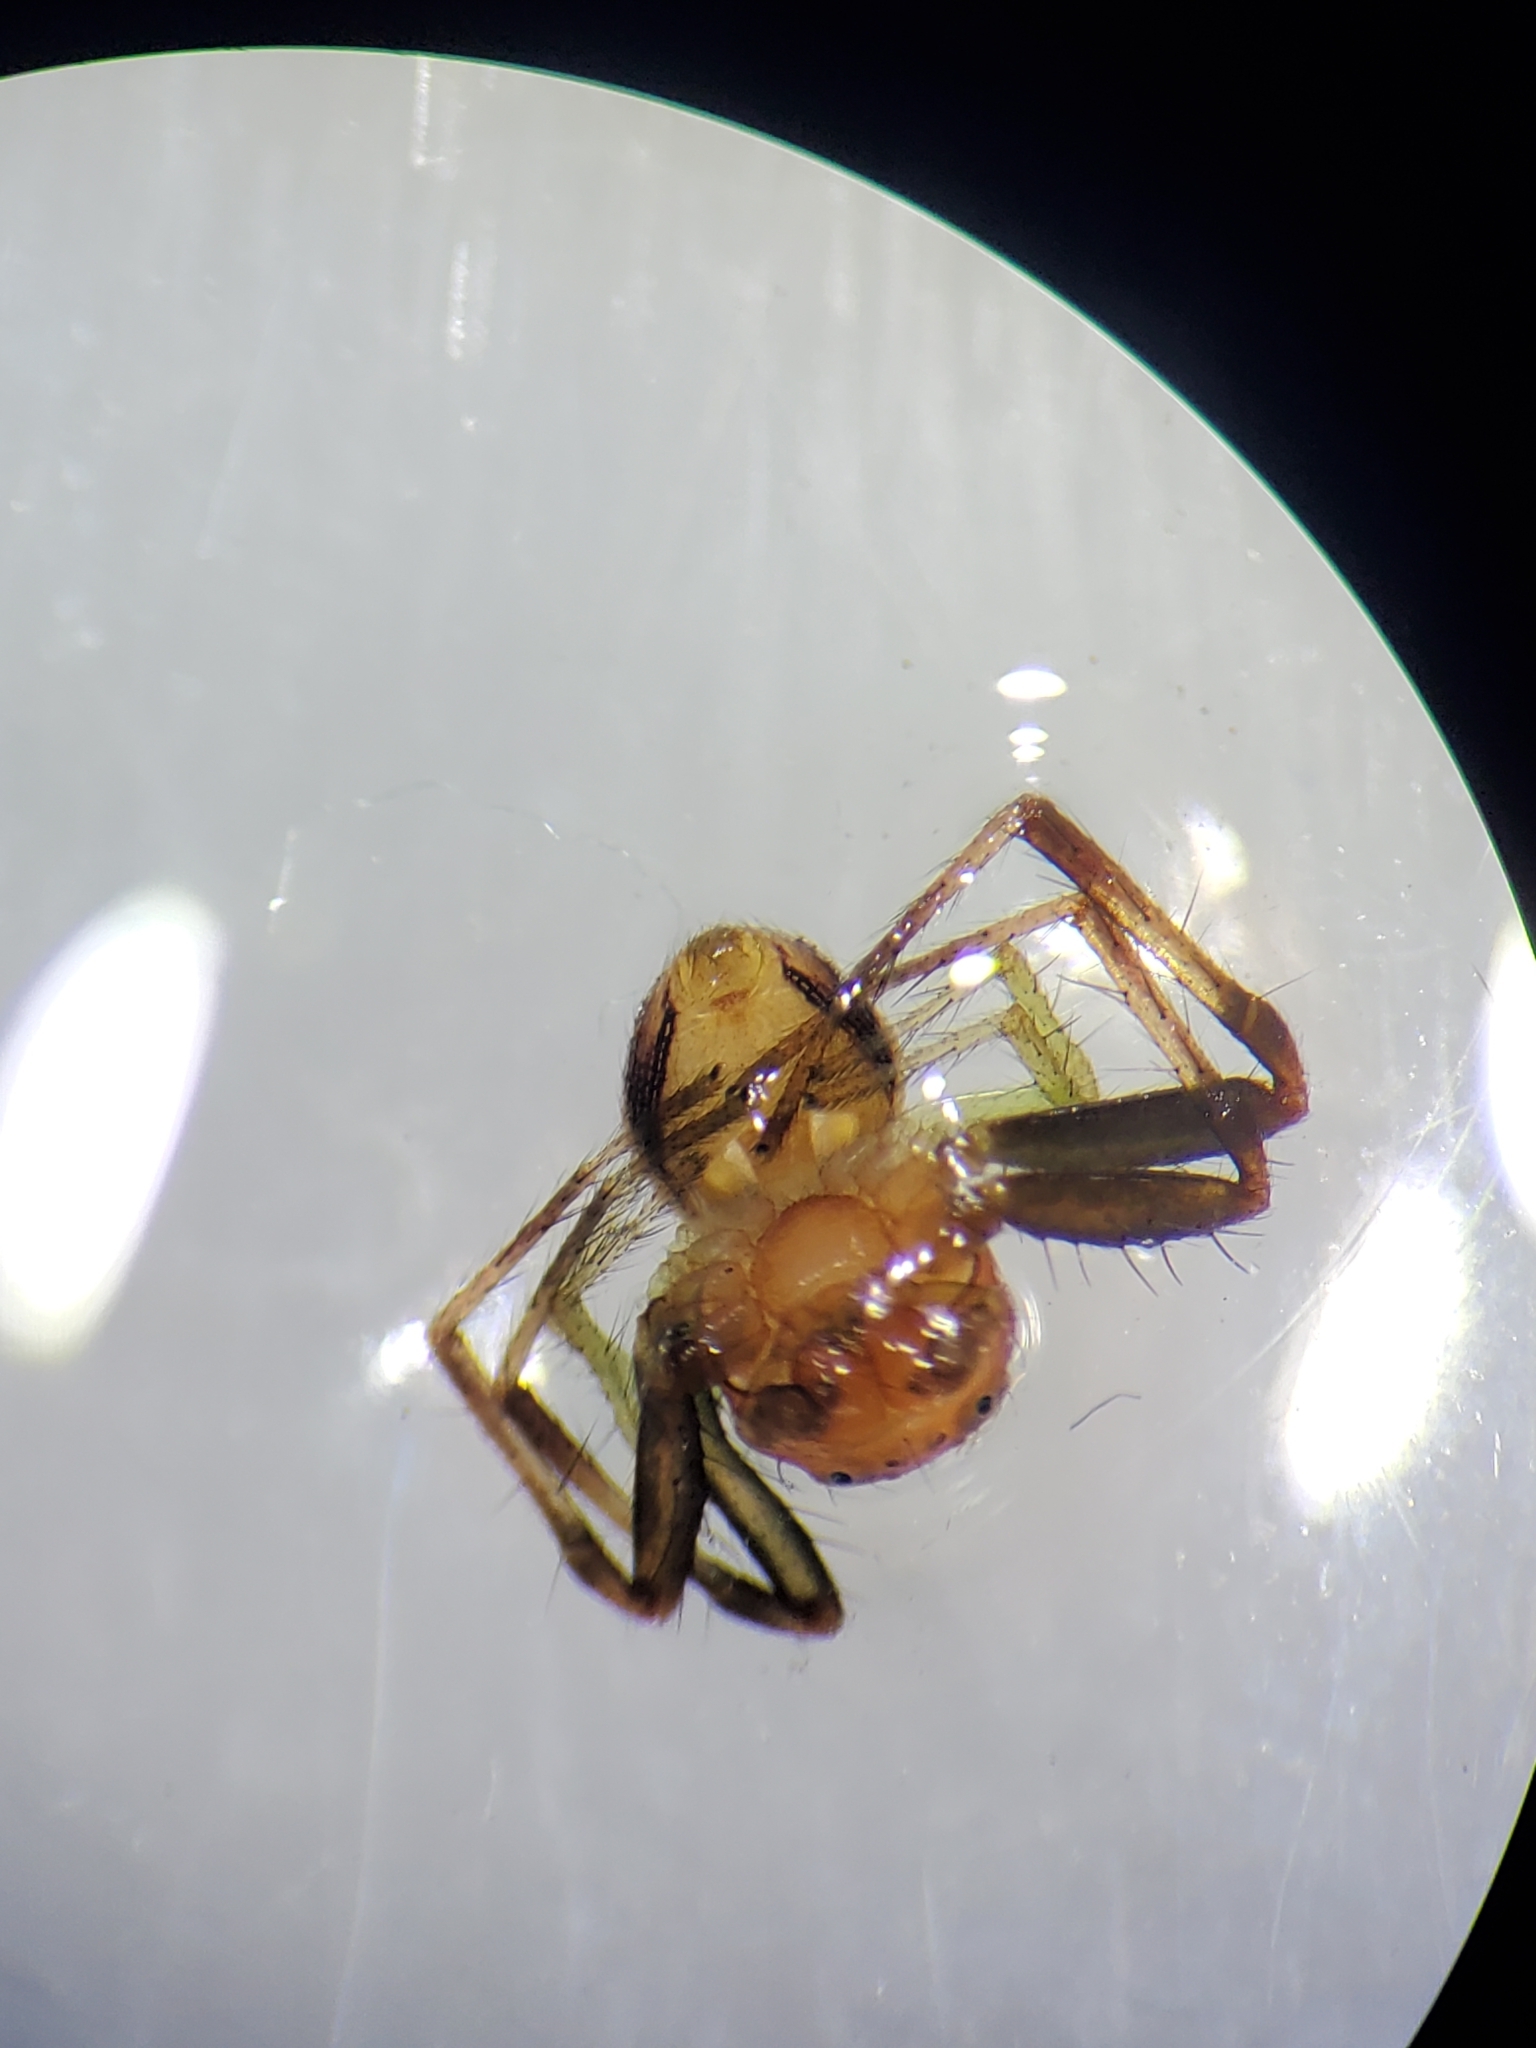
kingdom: Animalia
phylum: Arthropoda
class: Arachnida
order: Araneae
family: Thomisidae
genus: Synema
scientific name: Synema parvulum
